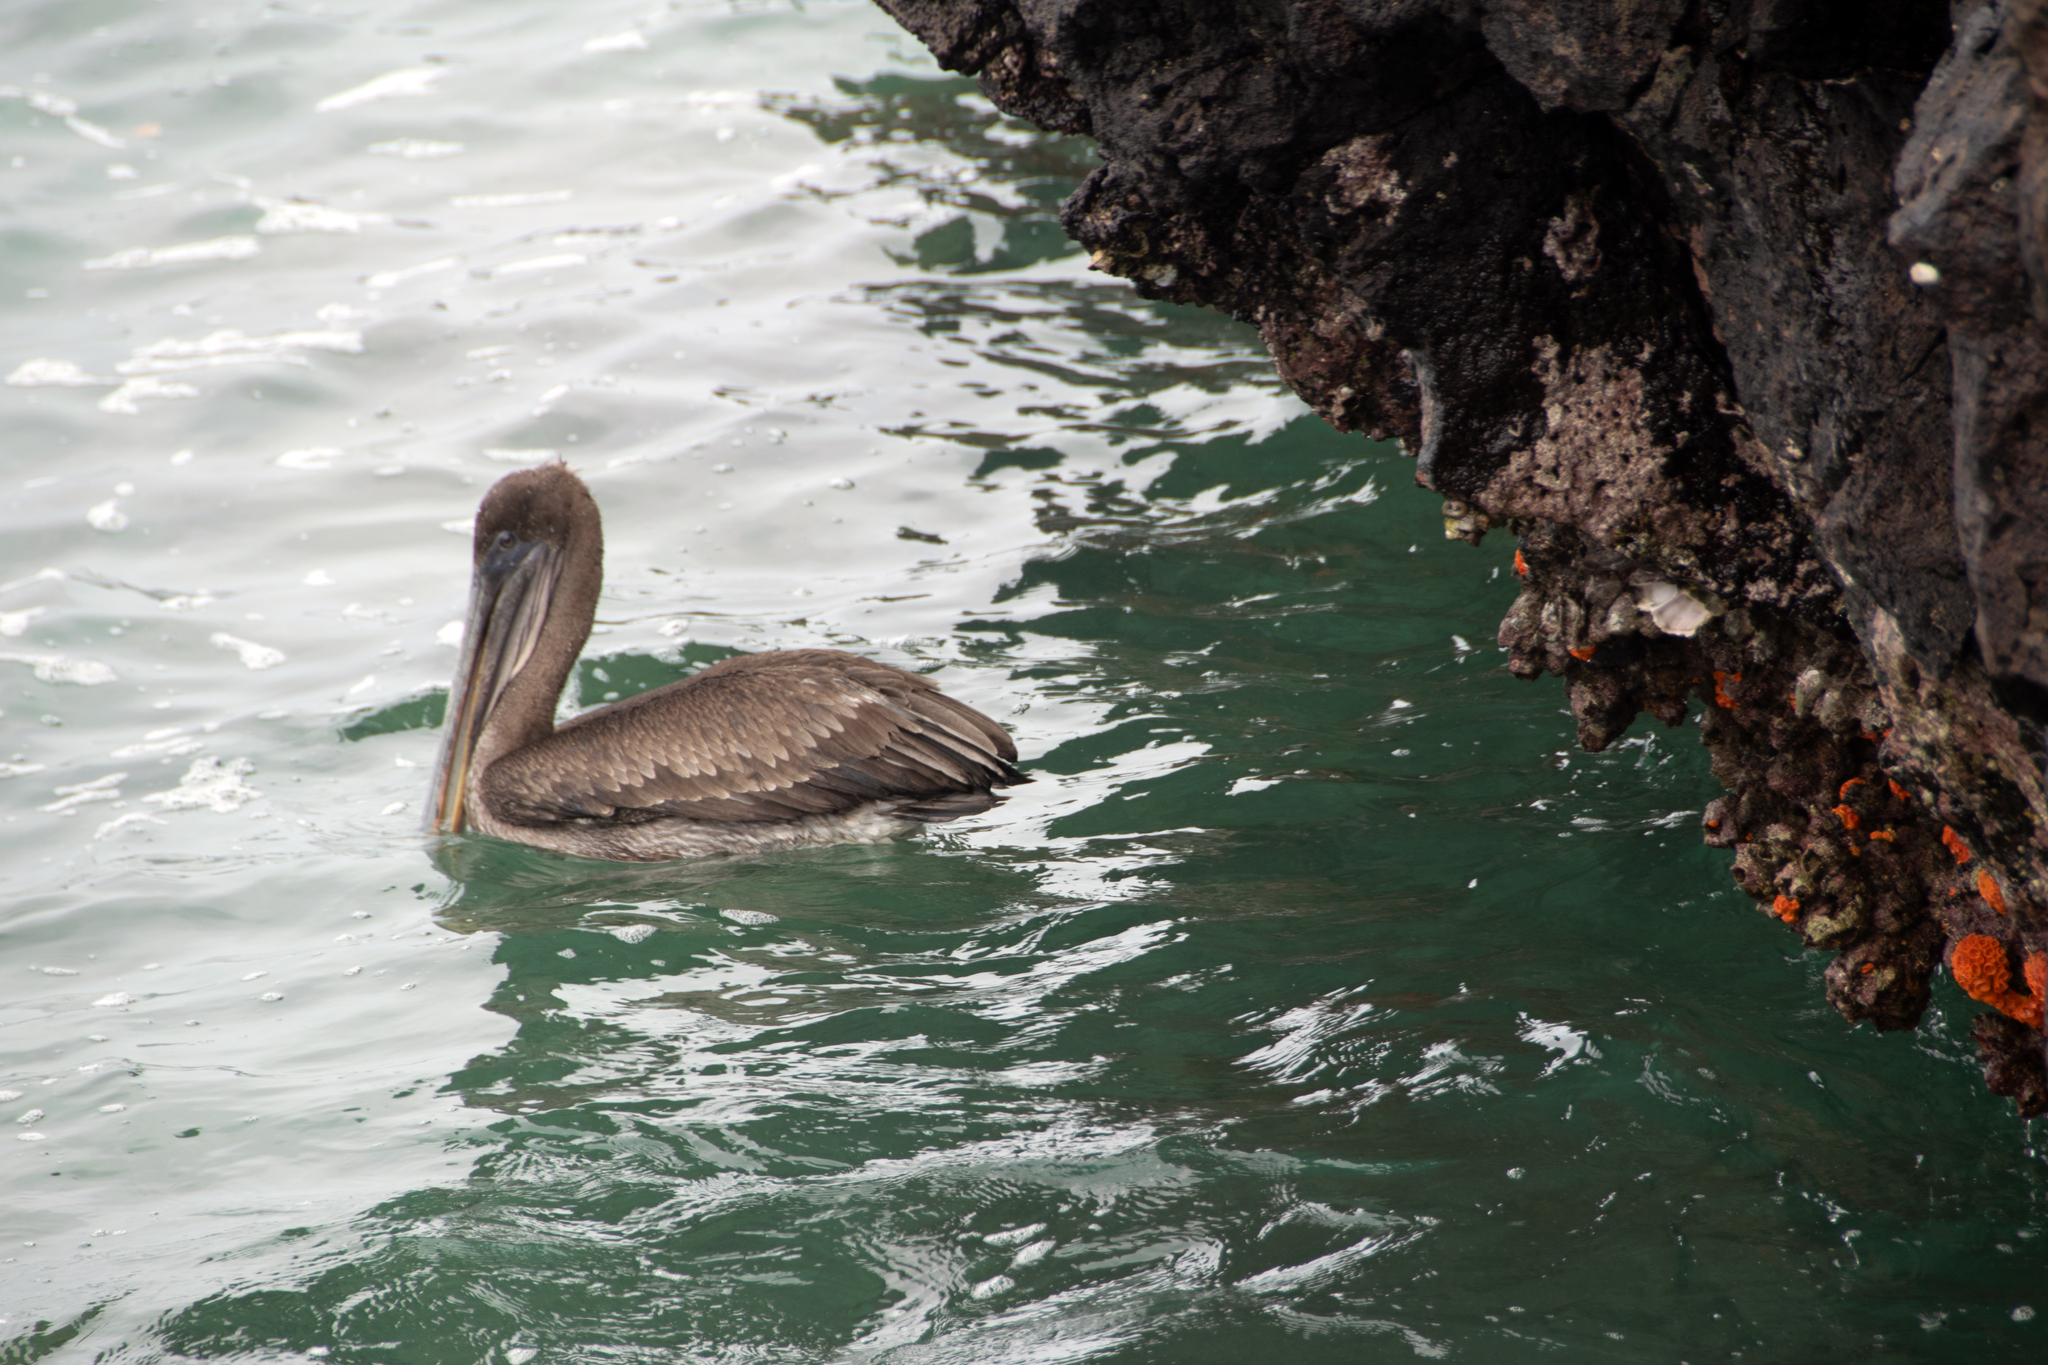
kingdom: Animalia
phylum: Chordata
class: Aves
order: Pelecaniformes
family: Pelecanidae
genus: Pelecanus
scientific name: Pelecanus occidentalis
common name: Brown pelican
